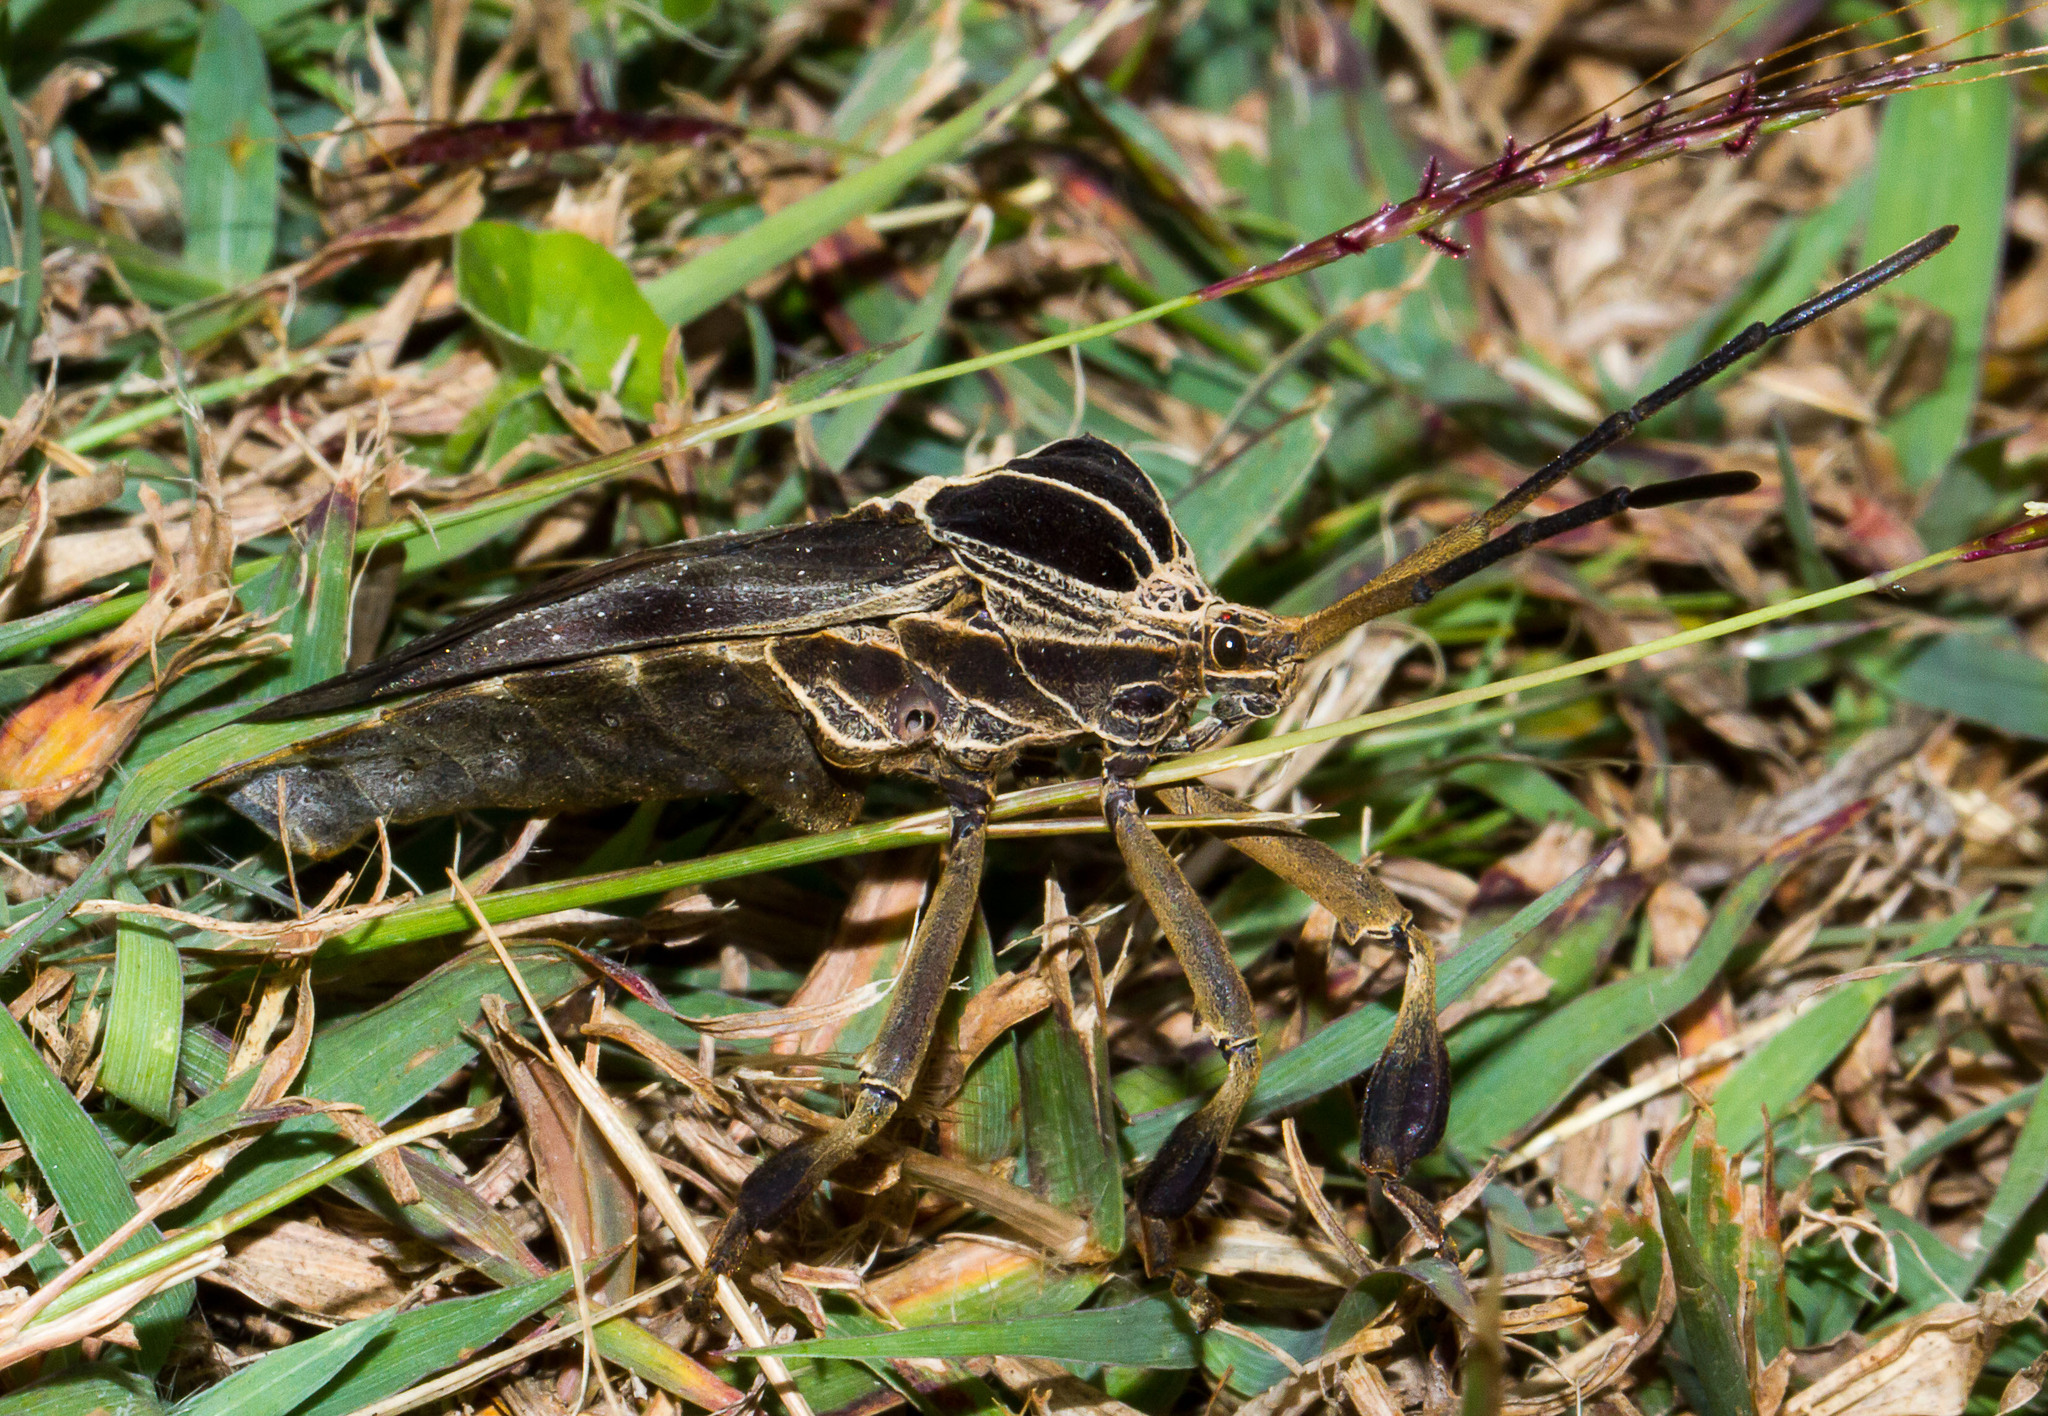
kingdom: Animalia
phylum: Arthropoda
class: Insecta
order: Hemiptera
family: Coreidae
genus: Petascelis
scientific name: Petascelis remipes
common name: Giant twig wilter
